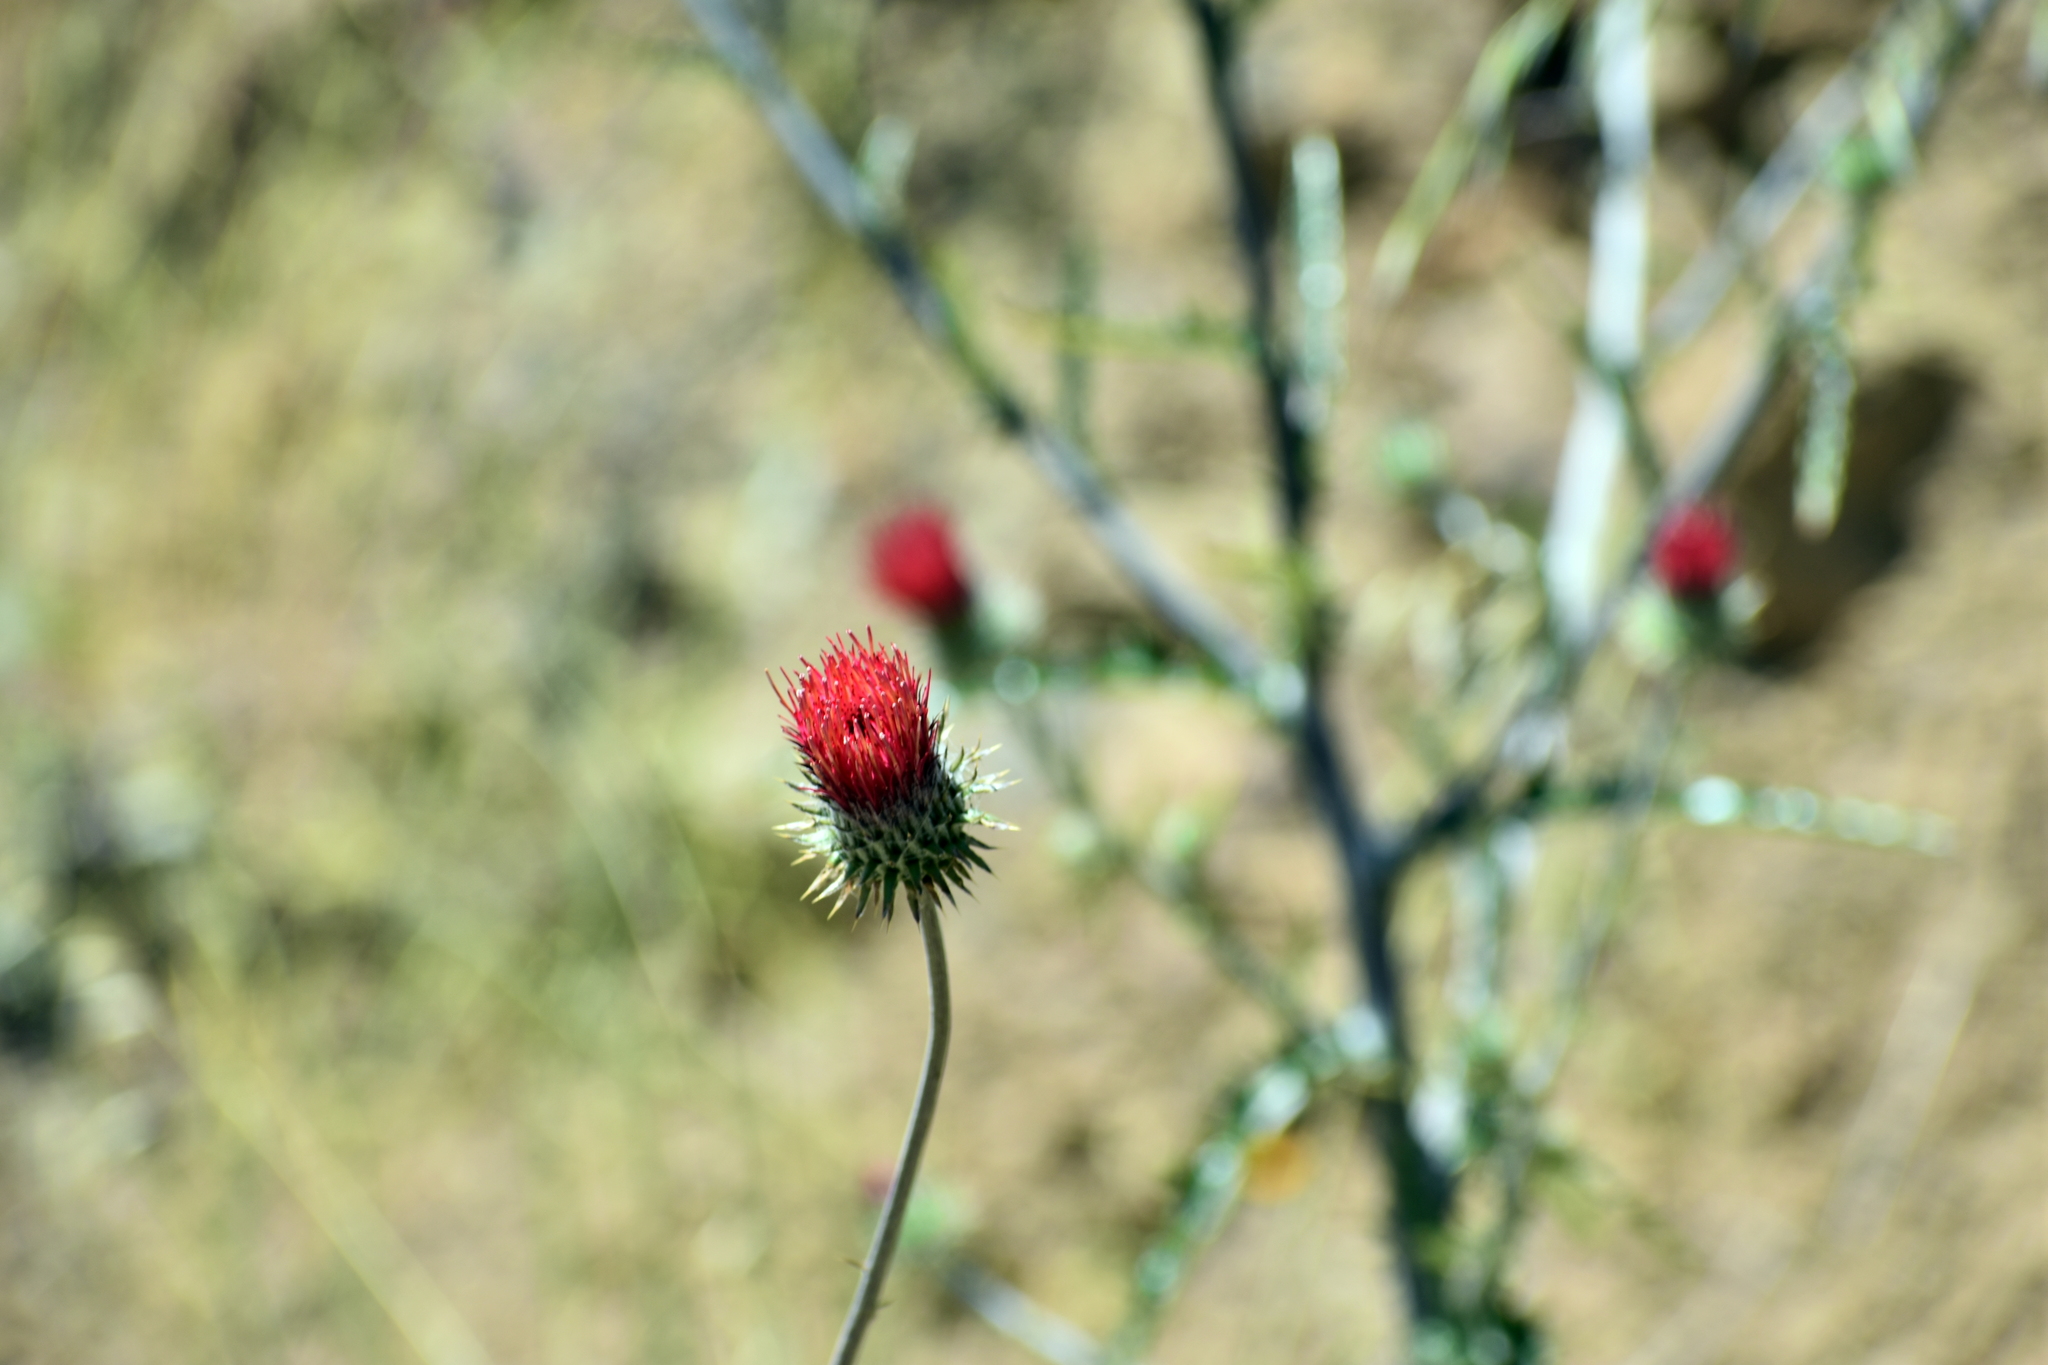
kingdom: Plantae
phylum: Tracheophyta
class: Magnoliopsida
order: Asterales
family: Asteraceae
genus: Cirsium
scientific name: Cirsium occidentale
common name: Western thistle
